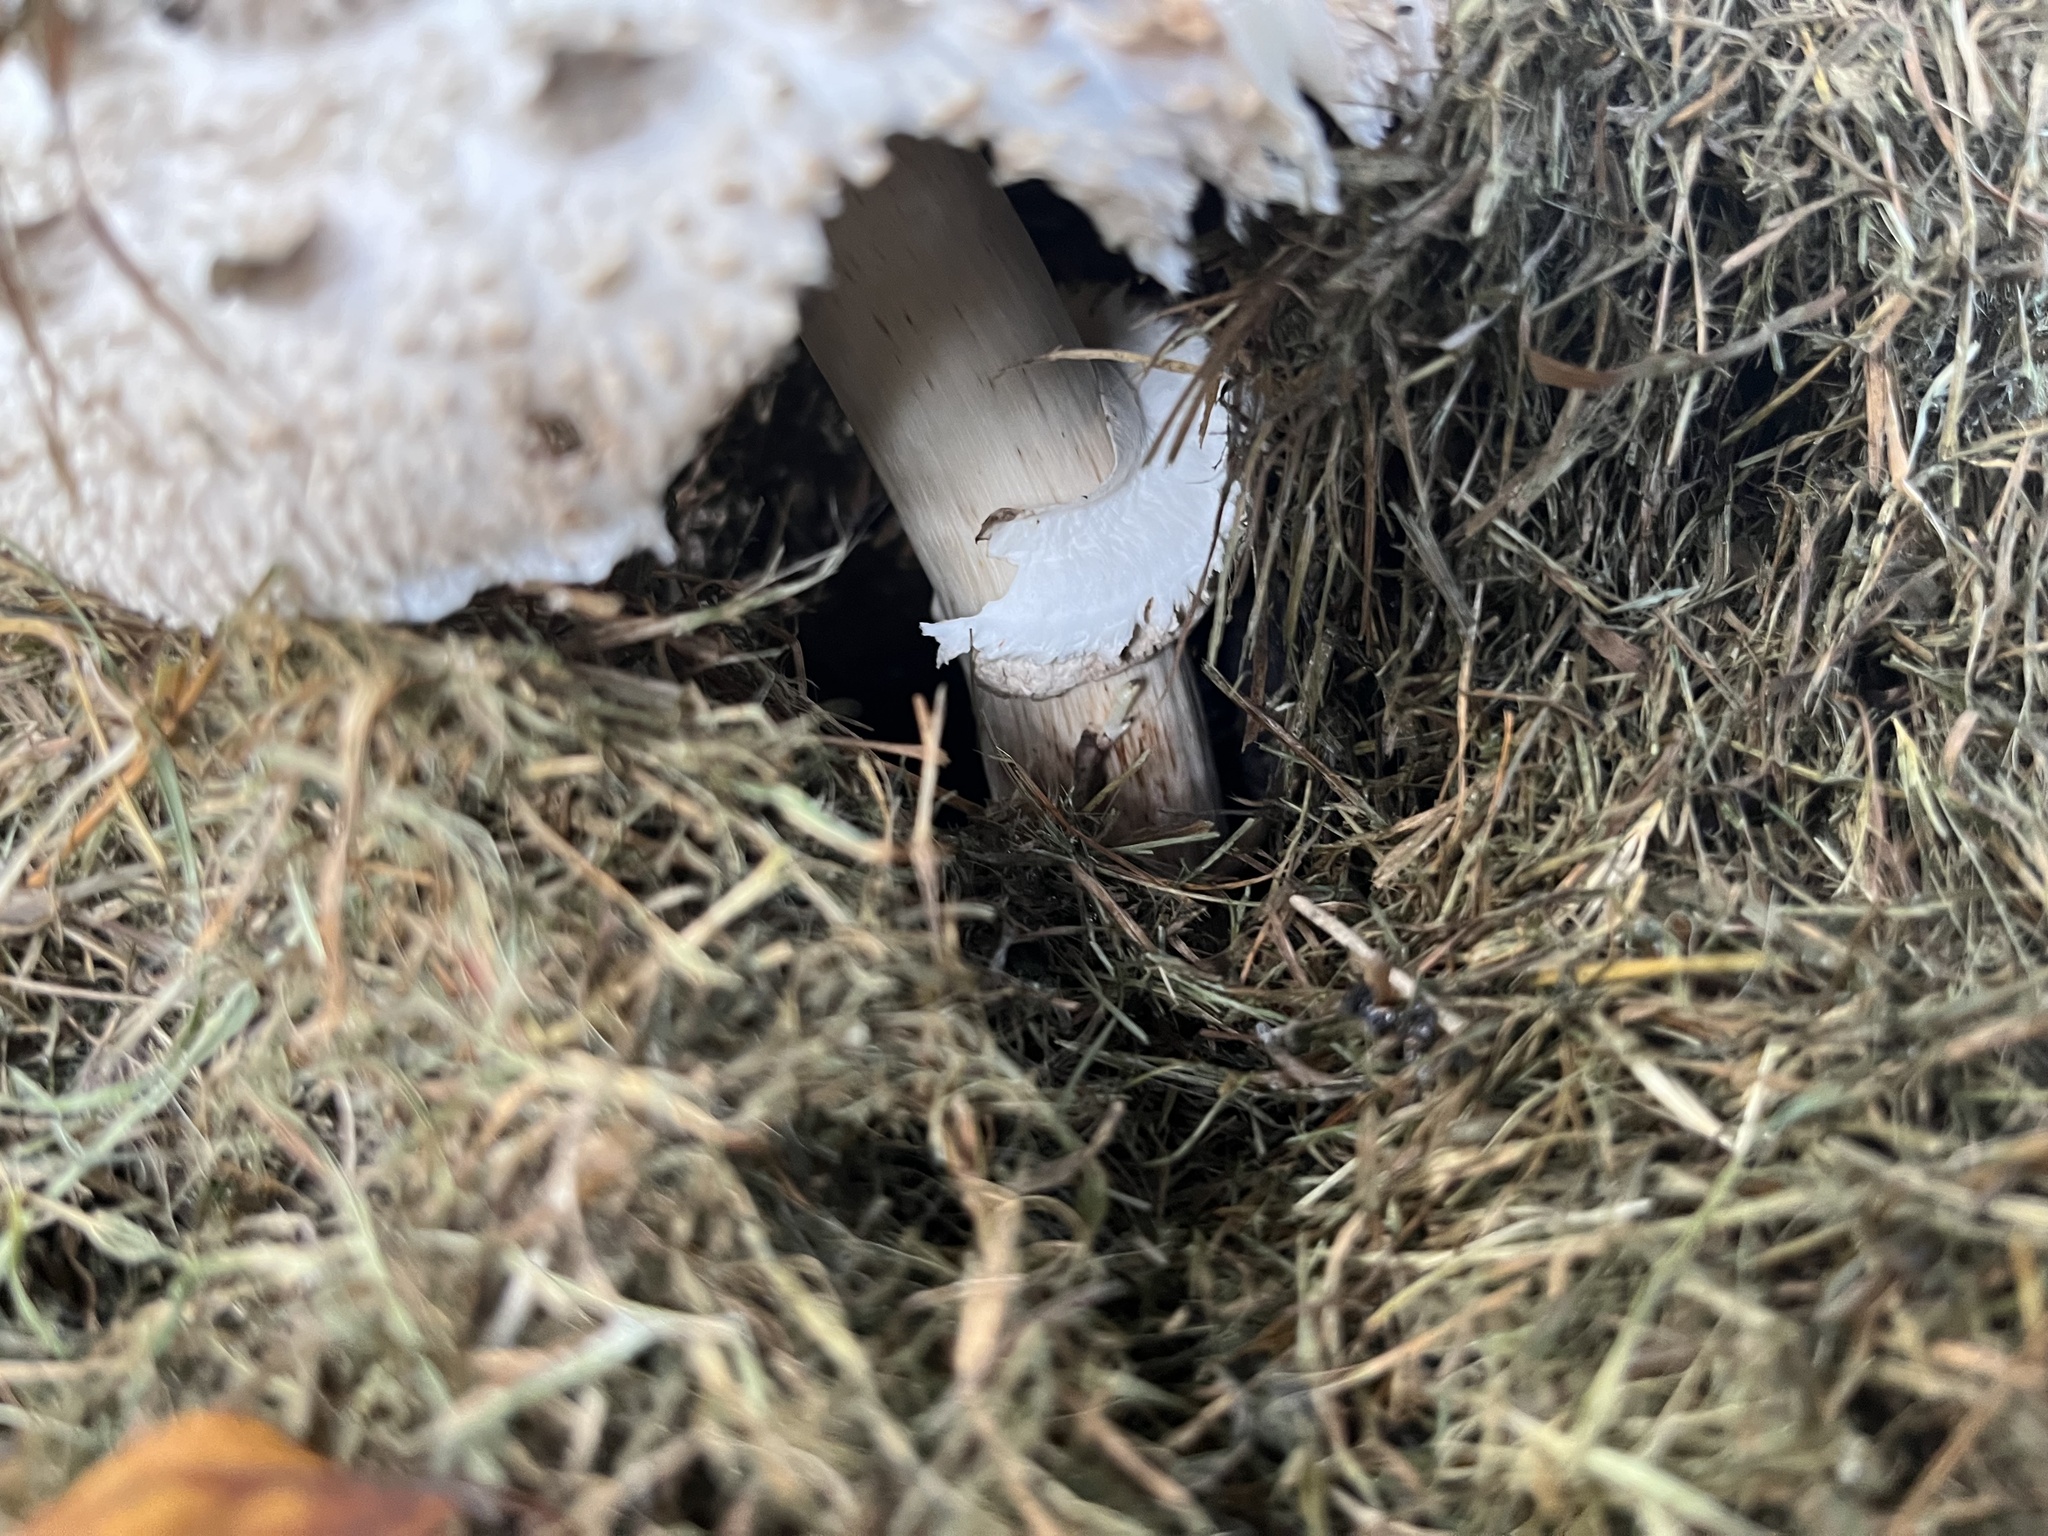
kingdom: Fungi
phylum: Basidiomycota
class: Agaricomycetes
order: Agaricales
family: Agaricaceae
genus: Chlorophyllum
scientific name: Chlorophyllum rhacodes
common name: Shaggy parasol
